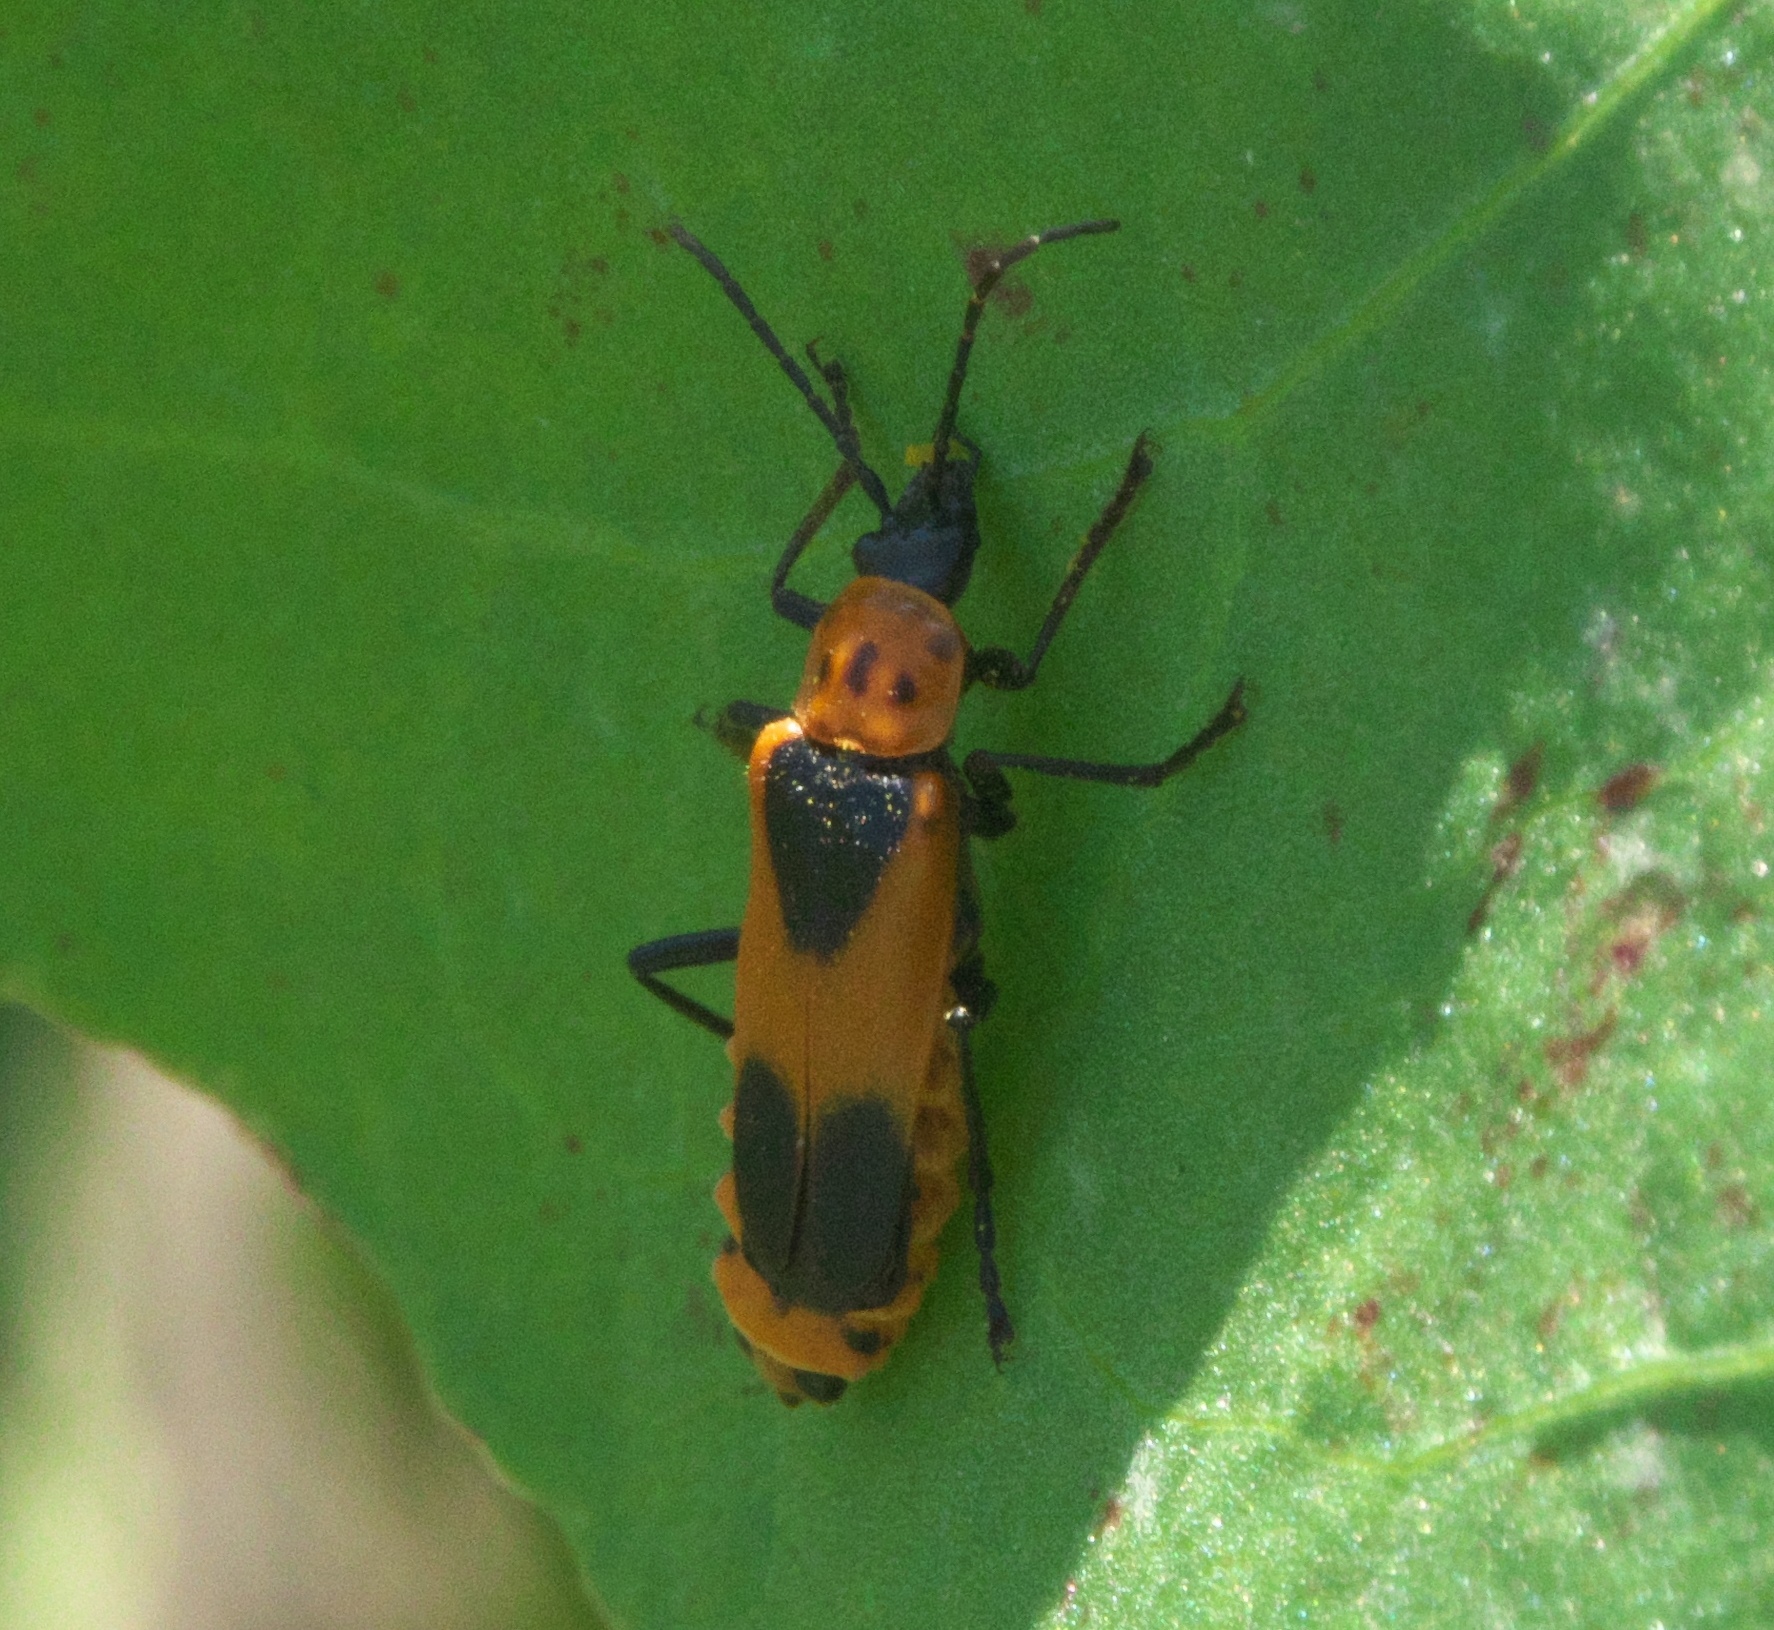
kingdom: Animalia
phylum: Arthropoda
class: Insecta
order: Coleoptera
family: Cantharidae
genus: Chauliognathus
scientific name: Chauliognathus basalis
